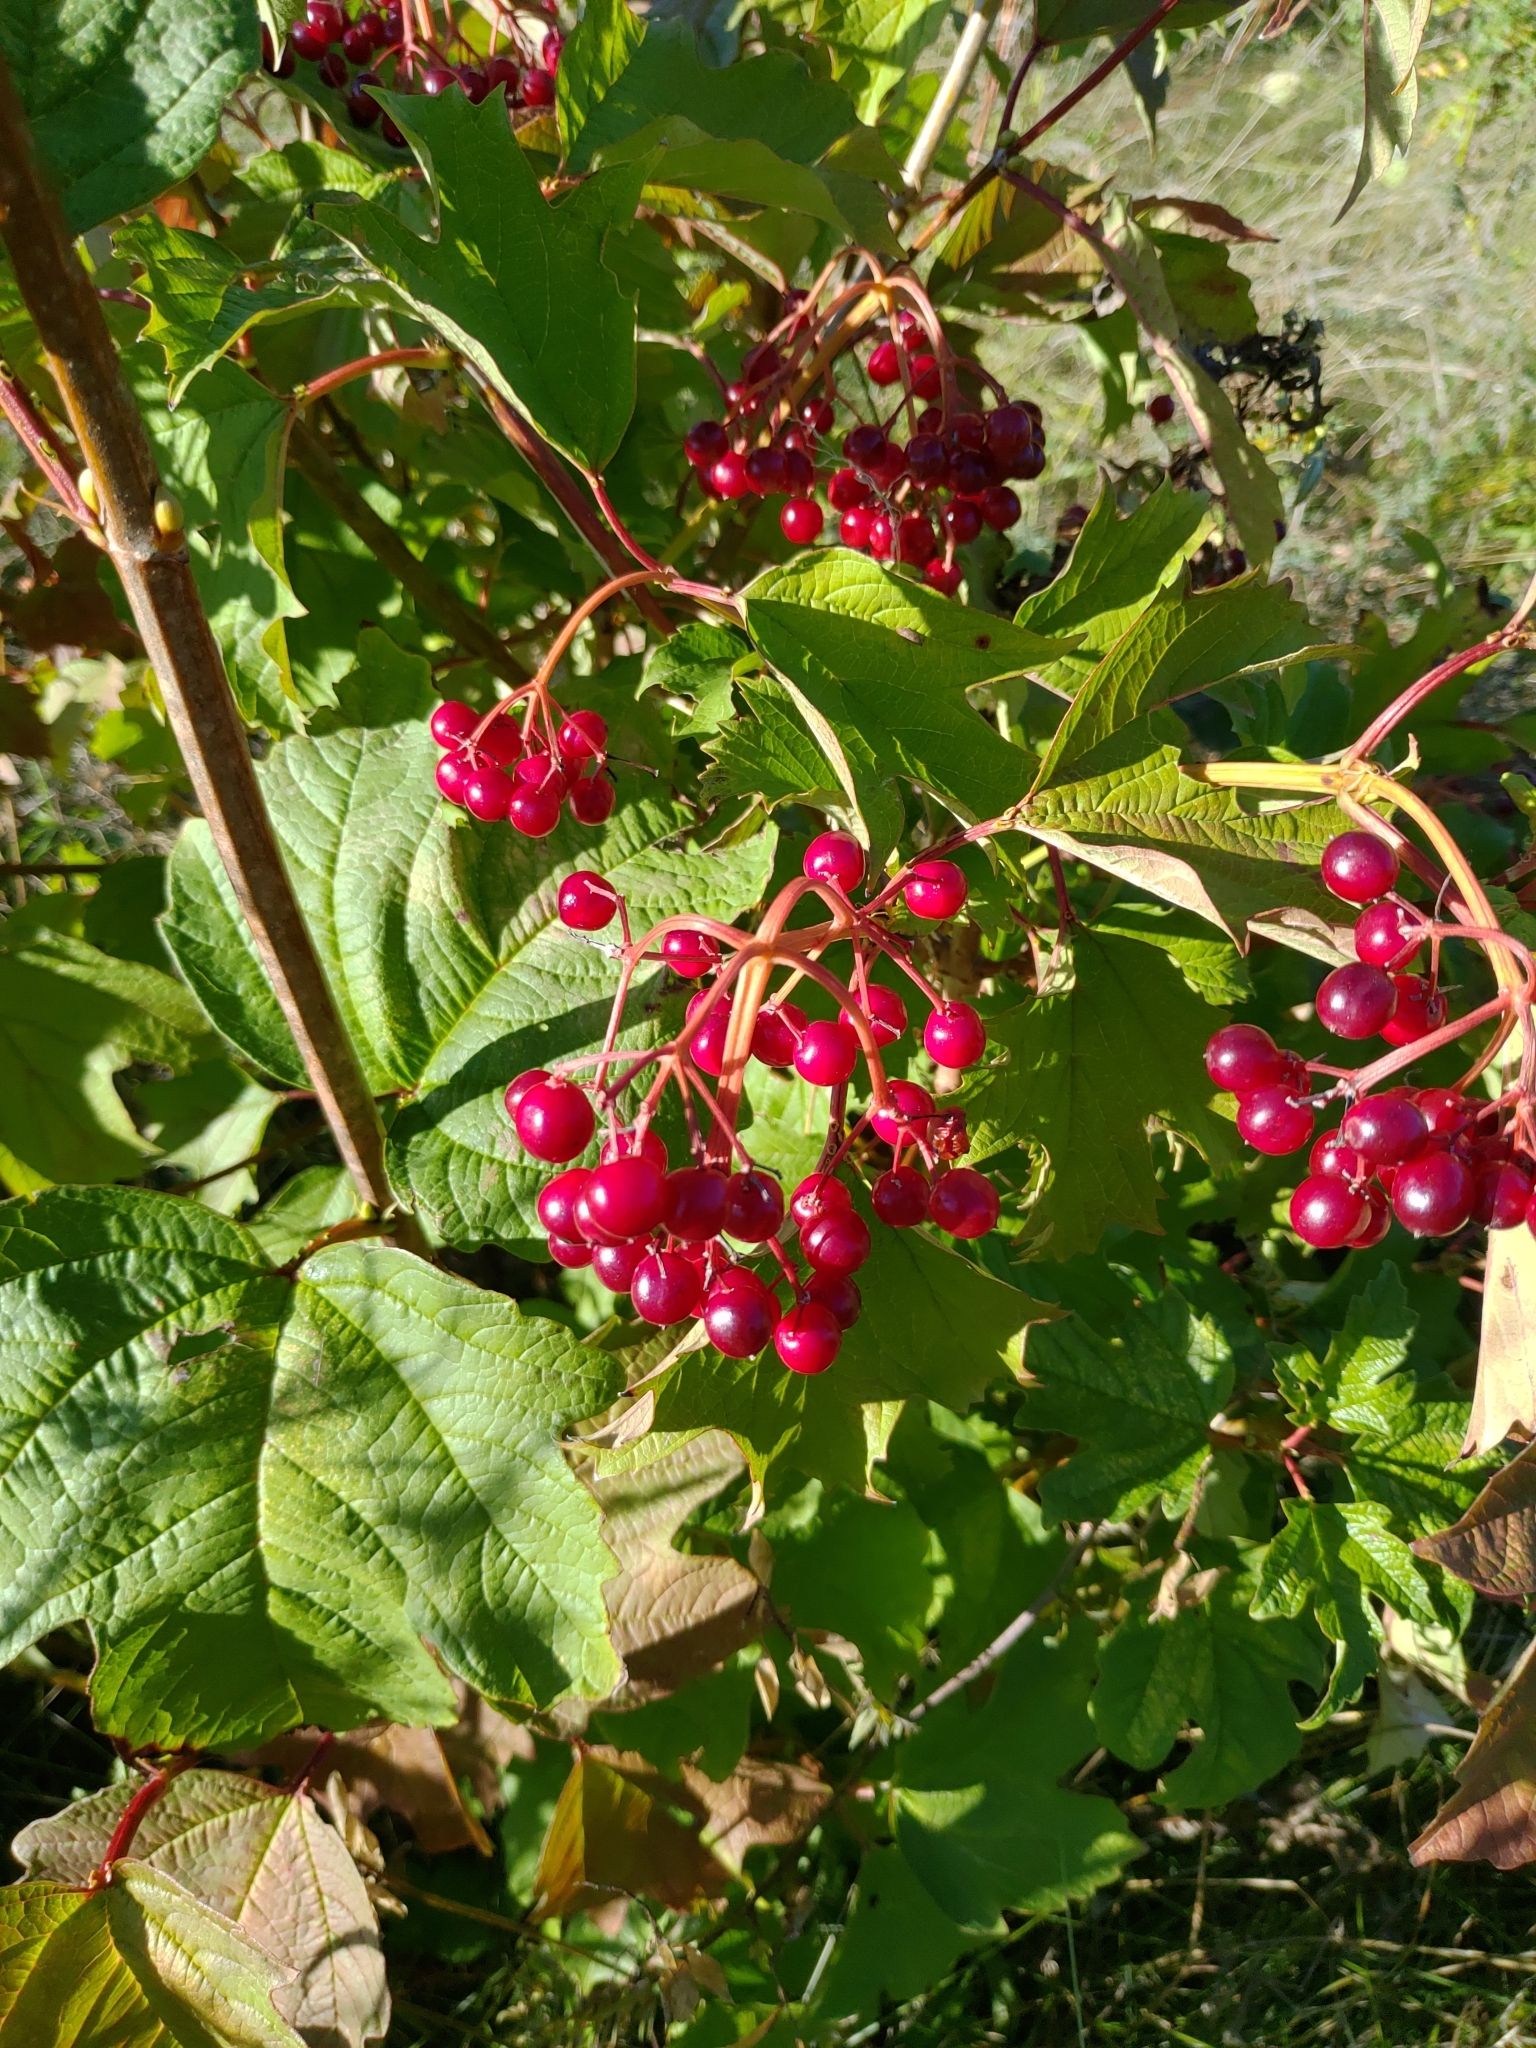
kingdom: Plantae
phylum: Tracheophyta
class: Magnoliopsida
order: Dipsacales
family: Viburnaceae
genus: Viburnum
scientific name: Viburnum opulus
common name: Guelder-rose
